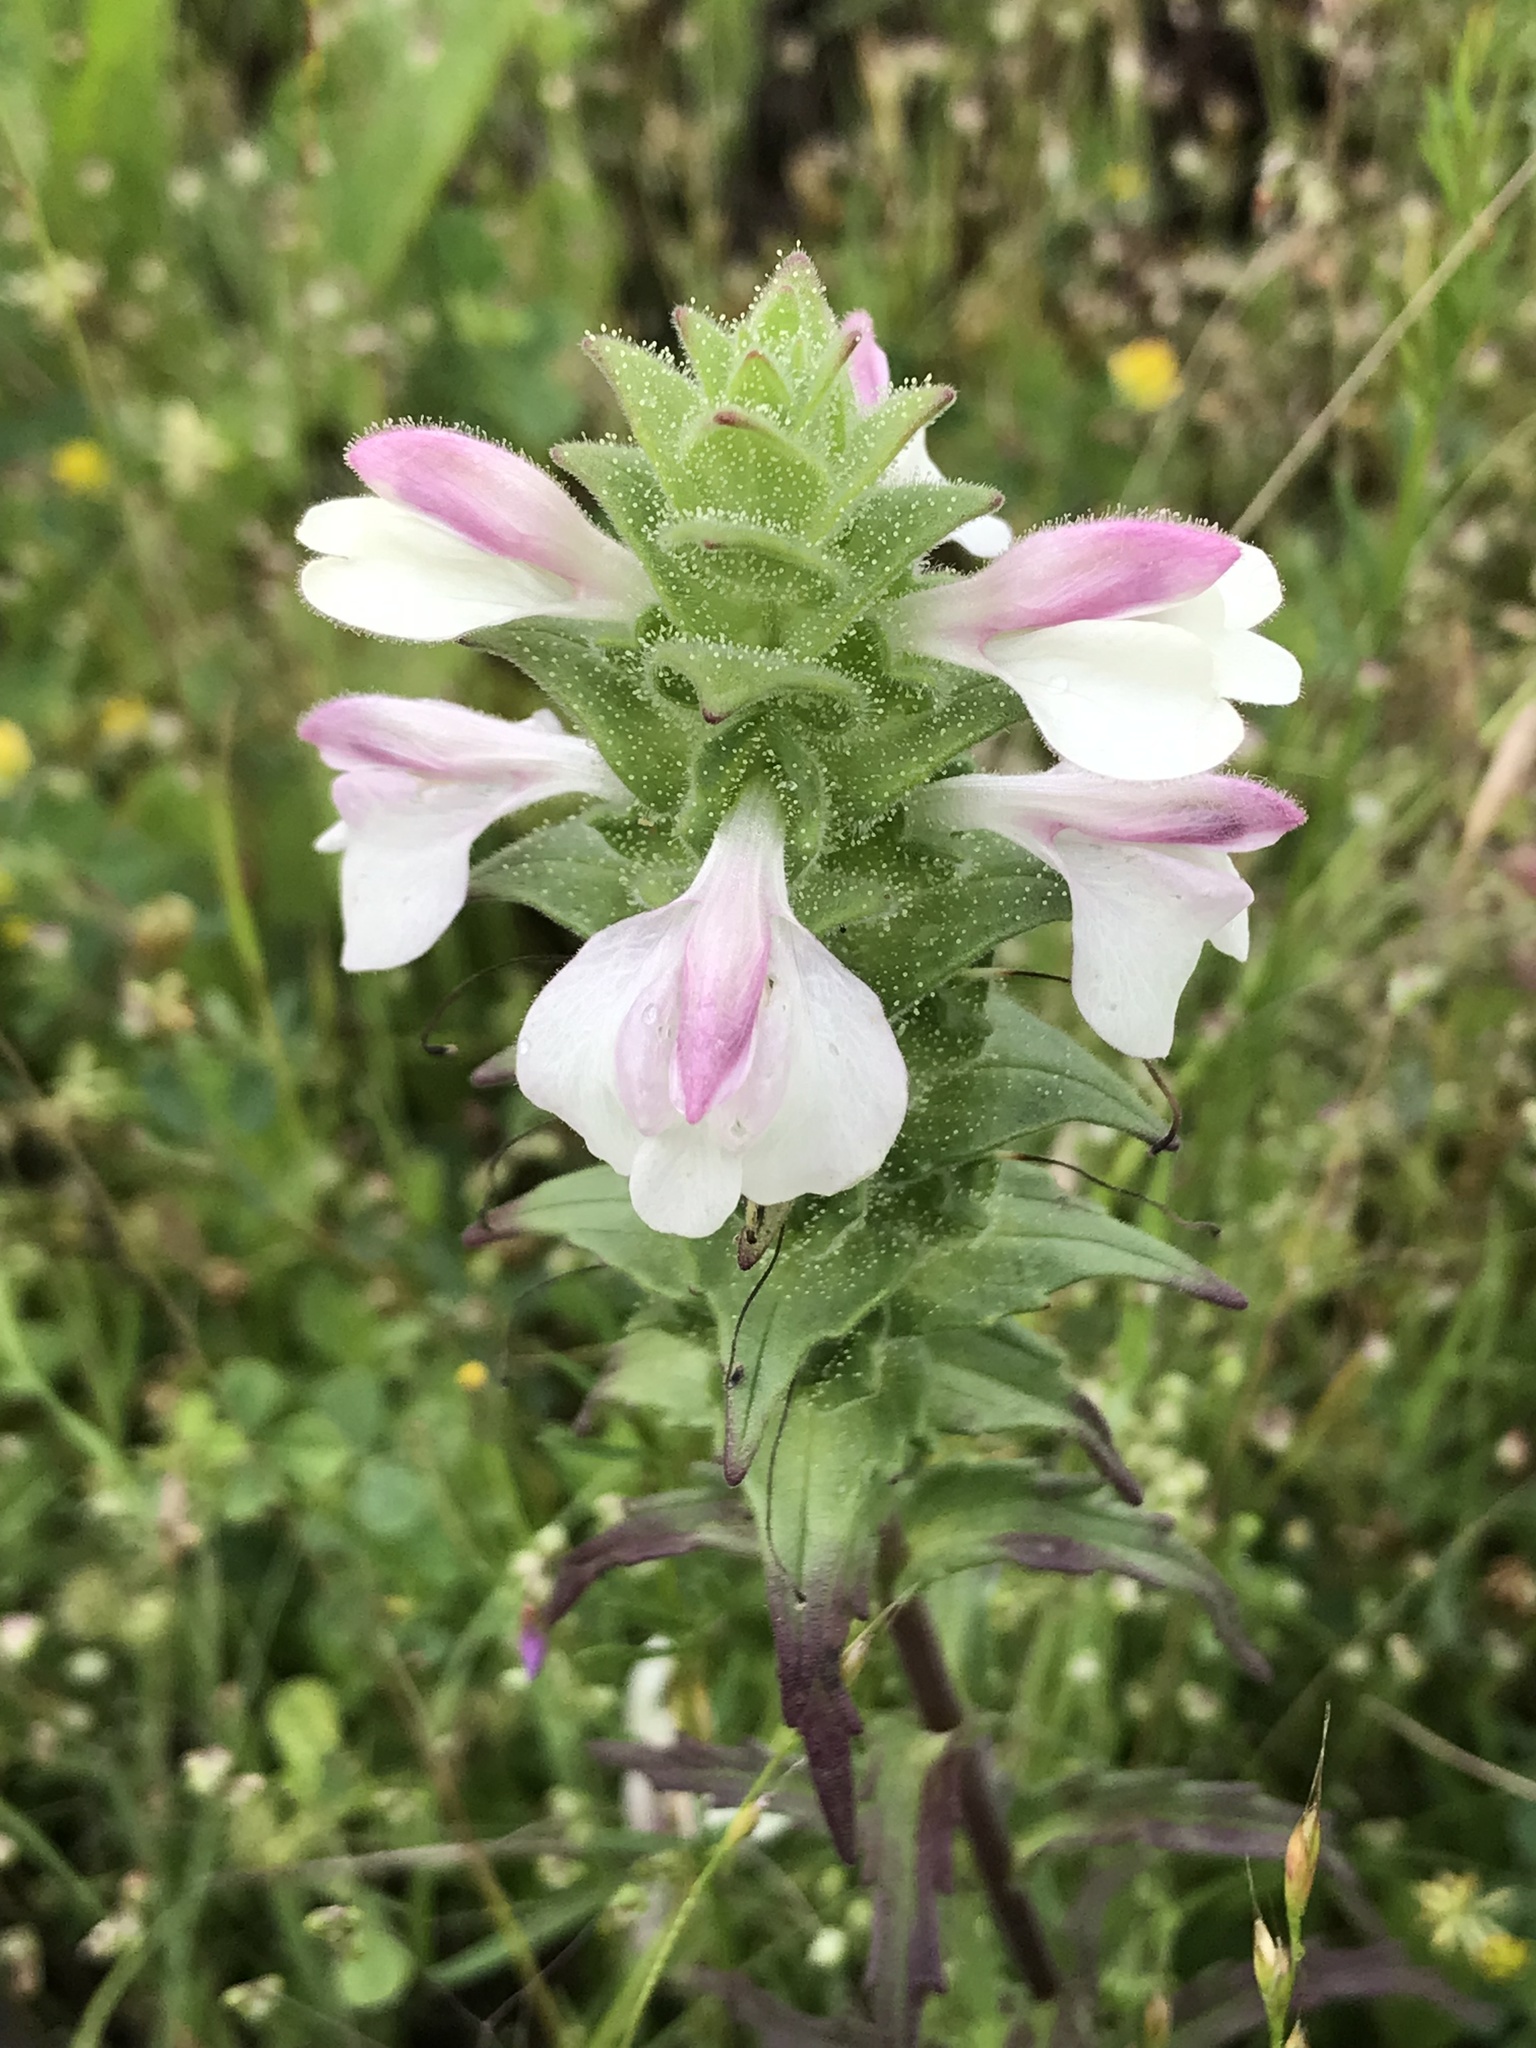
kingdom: Plantae
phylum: Tracheophyta
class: Magnoliopsida
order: Lamiales
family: Orobanchaceae
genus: Bellardia
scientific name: Bellardia trixago
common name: Mediterranean lineseed
